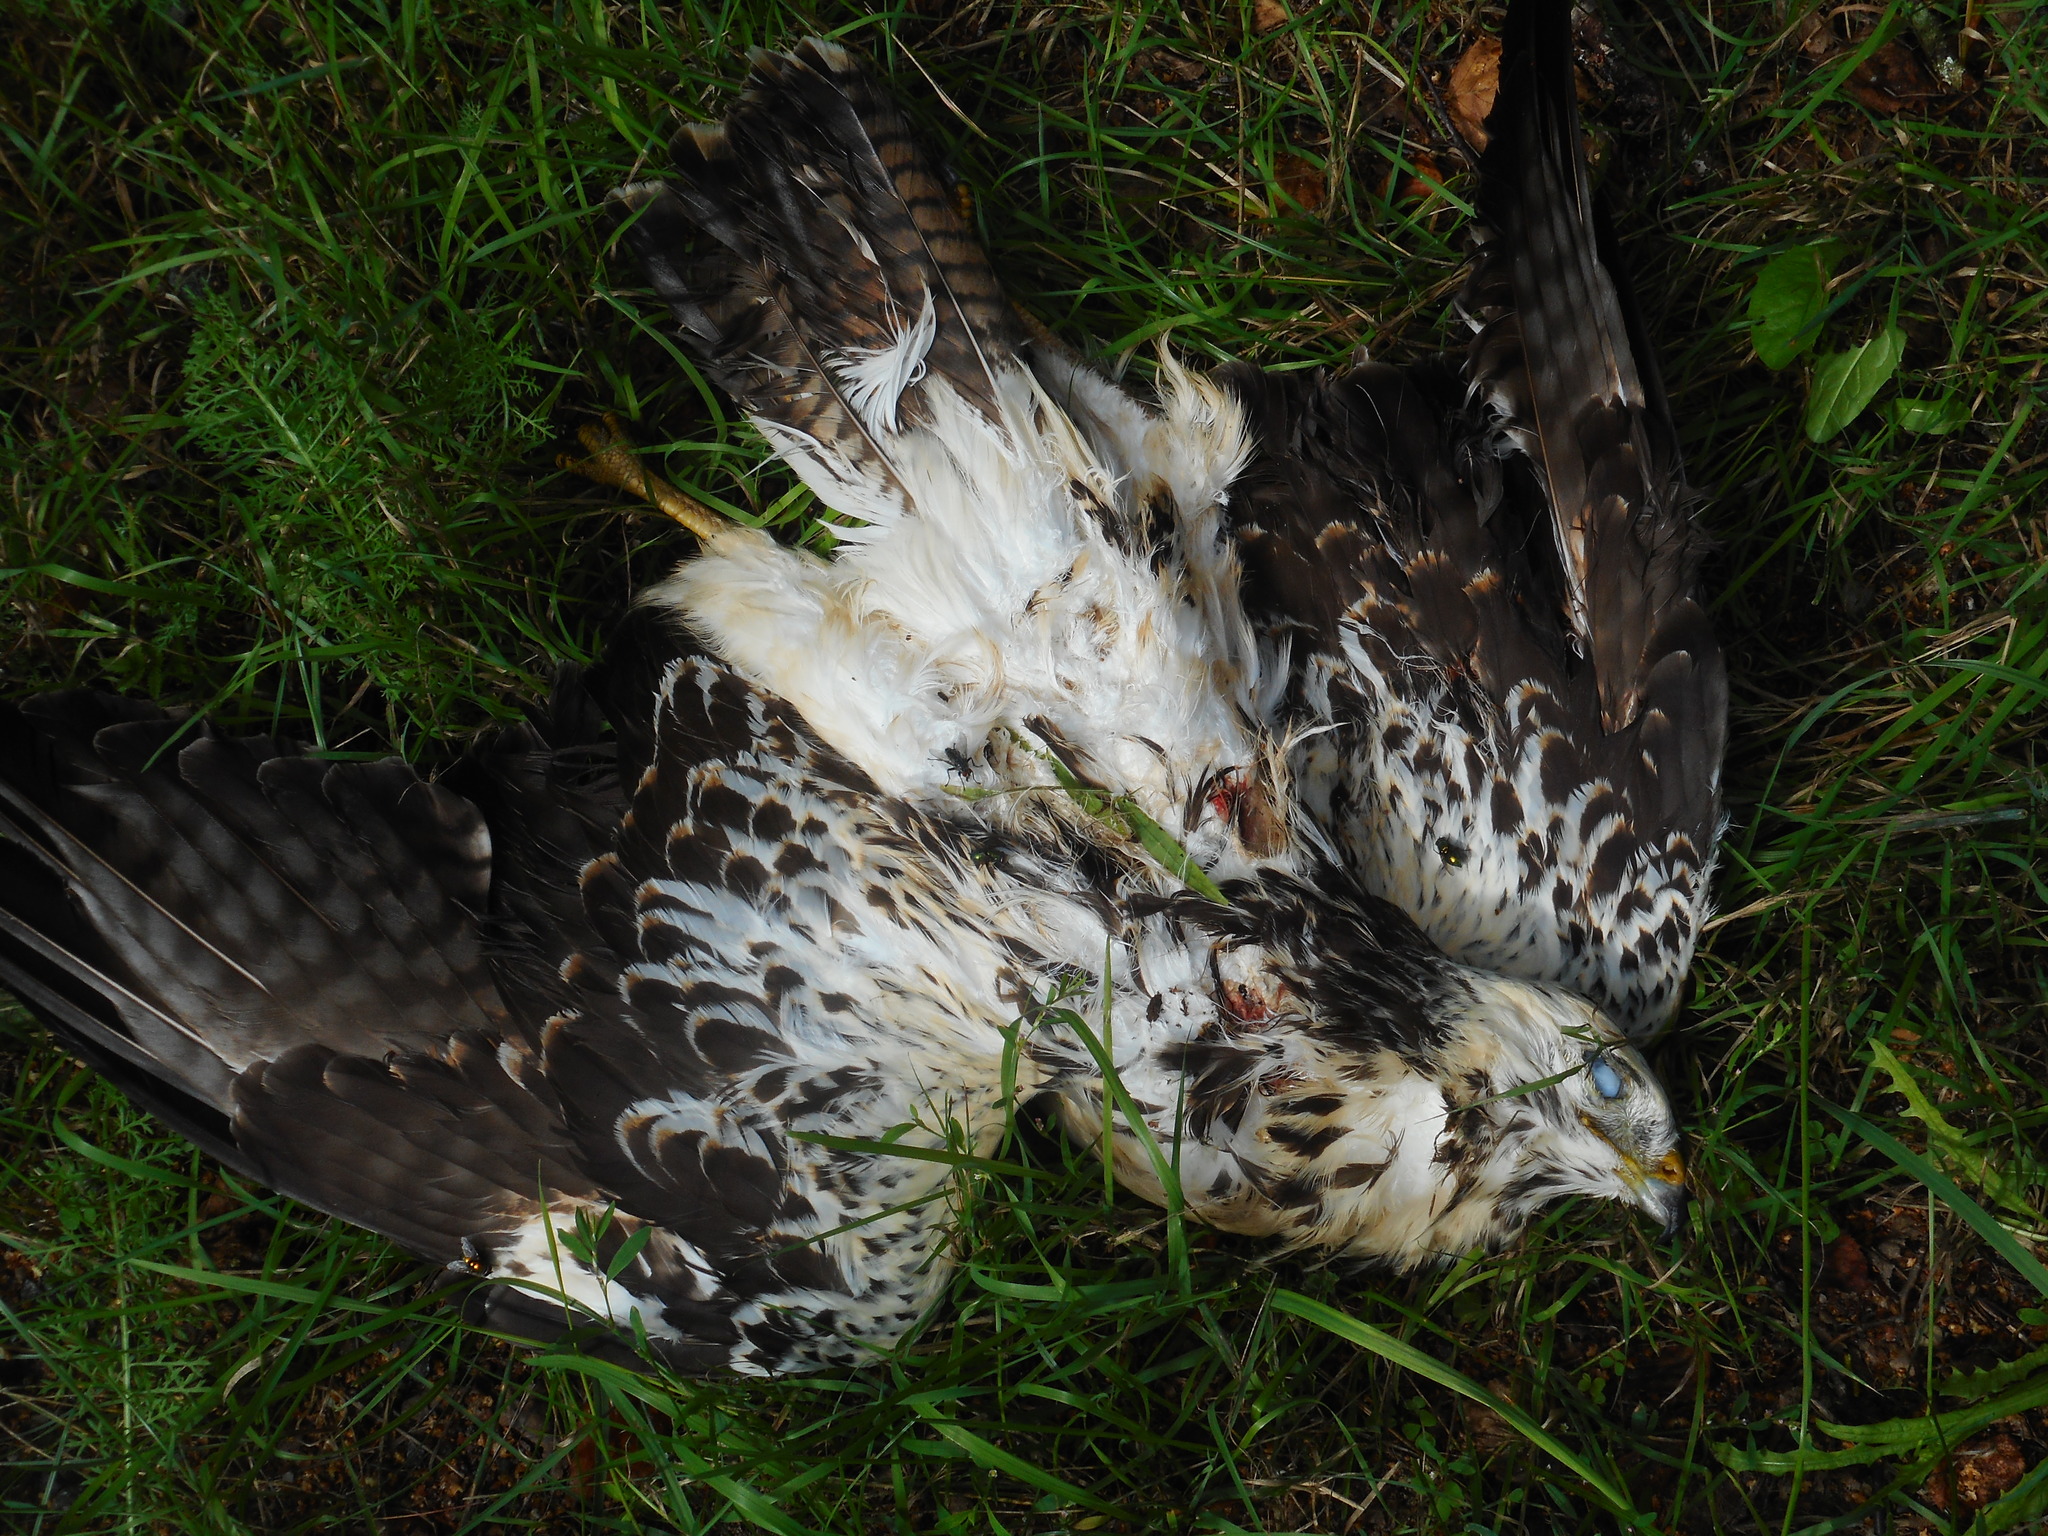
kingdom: Animalia
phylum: Chordata
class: Aves
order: Accipitriformes
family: Accipitridae
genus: Buteo
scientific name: Buteo buteo
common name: Common buzzard
